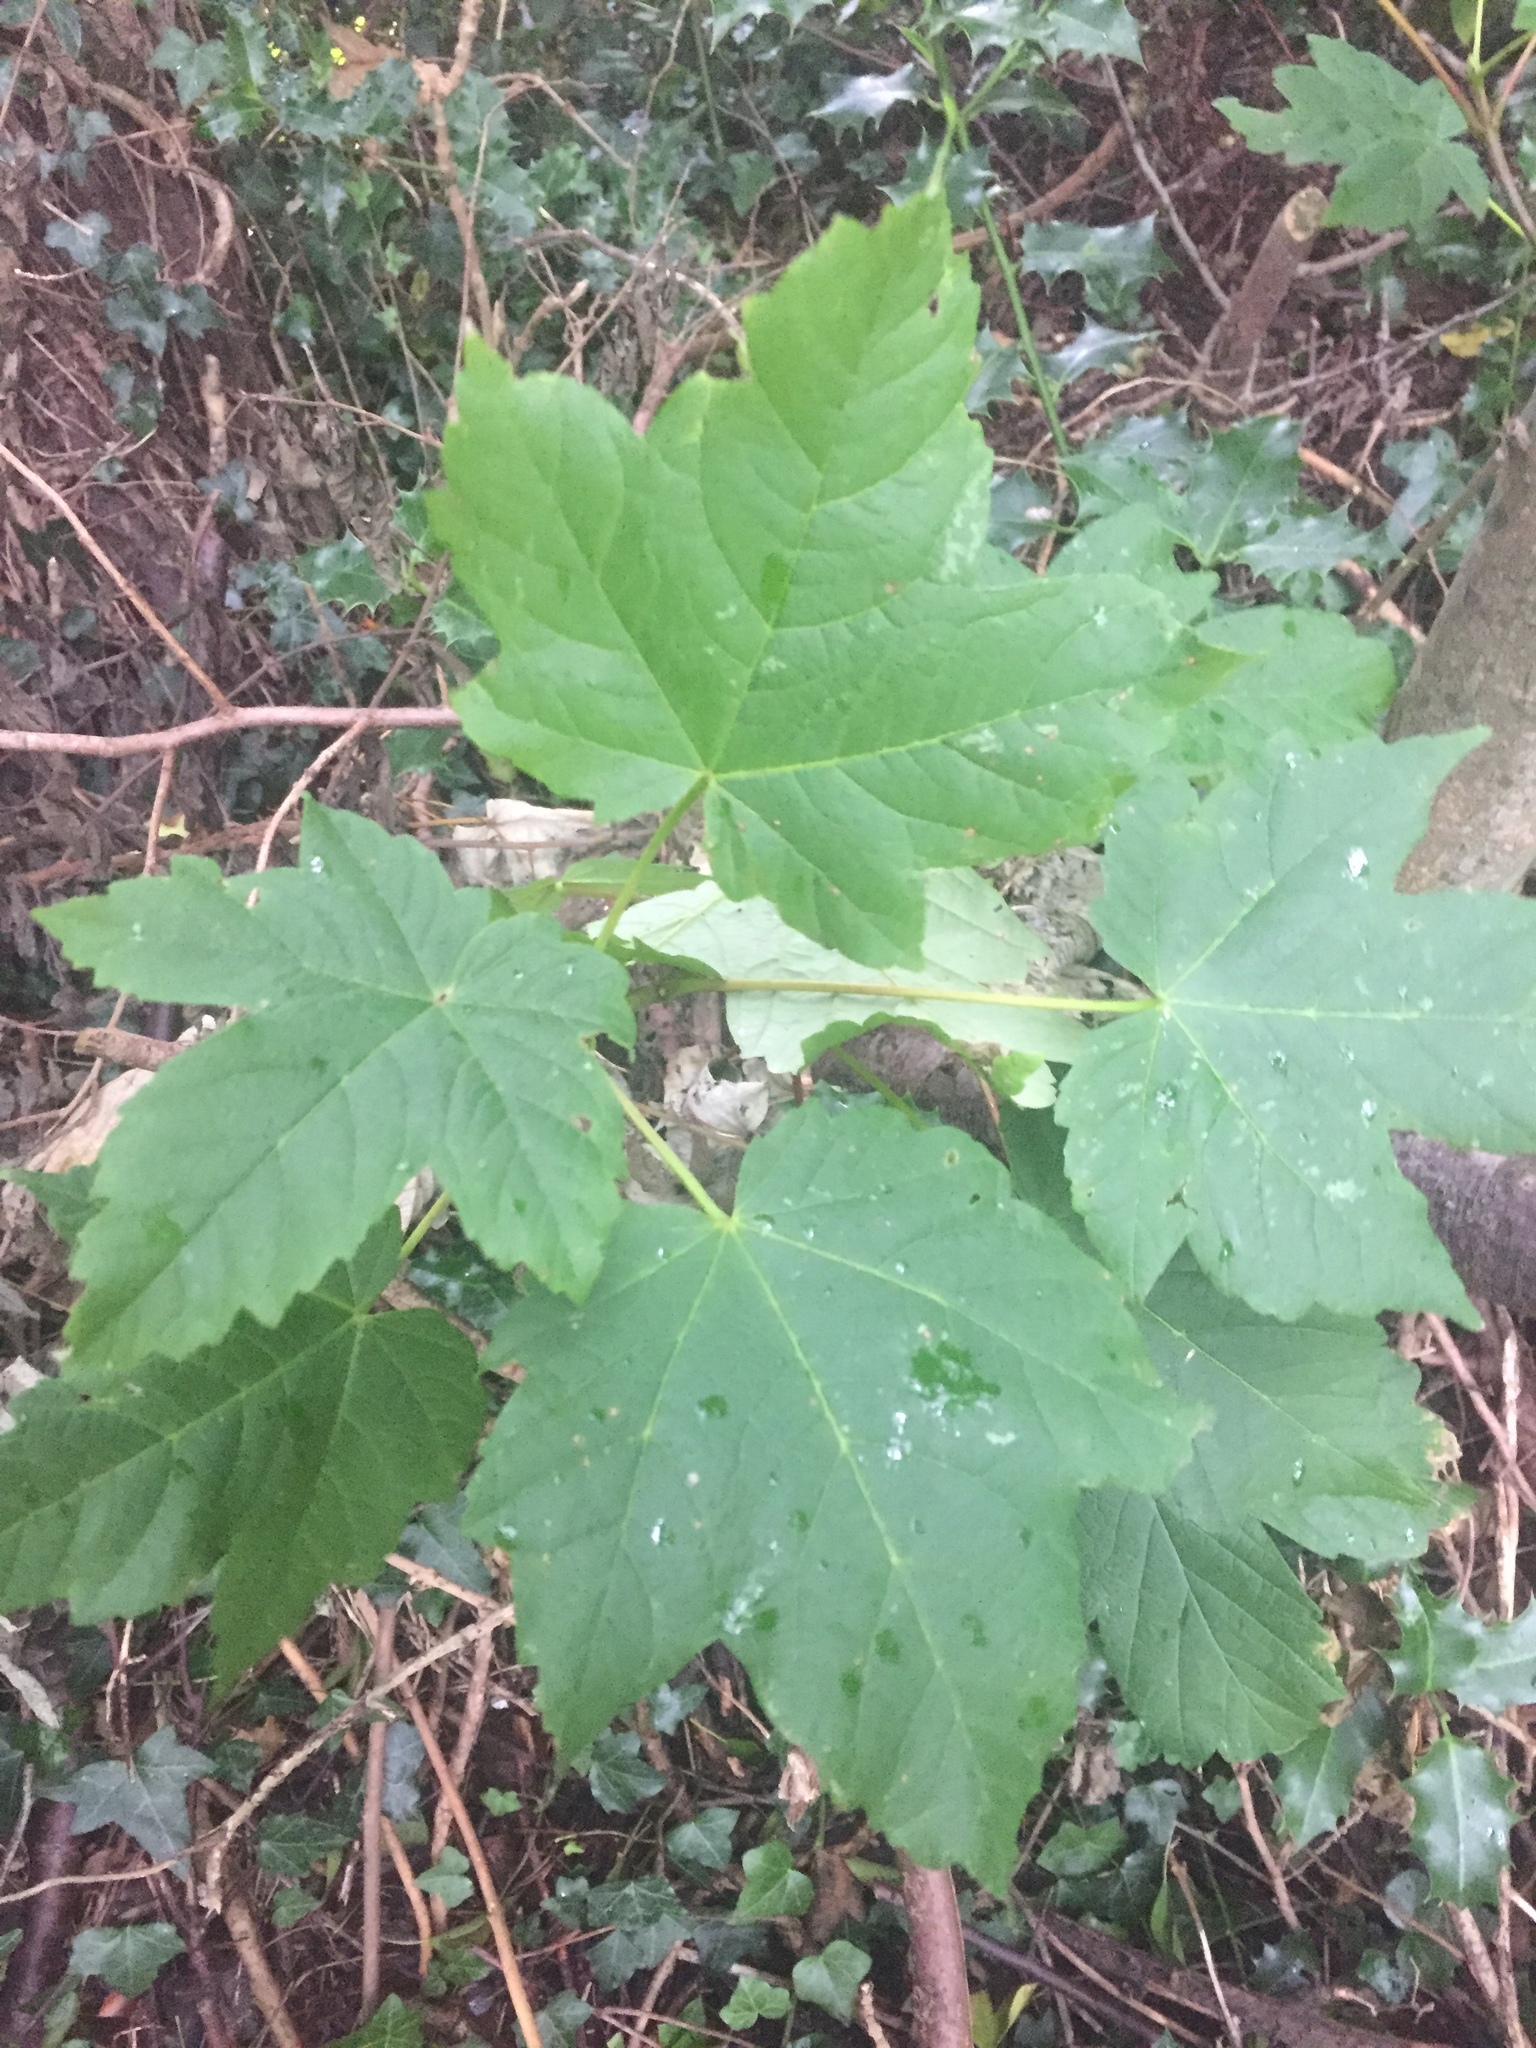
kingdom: Plantae
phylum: Tracheophyta
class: Magnoliopsida
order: Sapindales
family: Sapindaceae
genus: Acer
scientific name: Acer pseudoplatanus
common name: Sycamore
